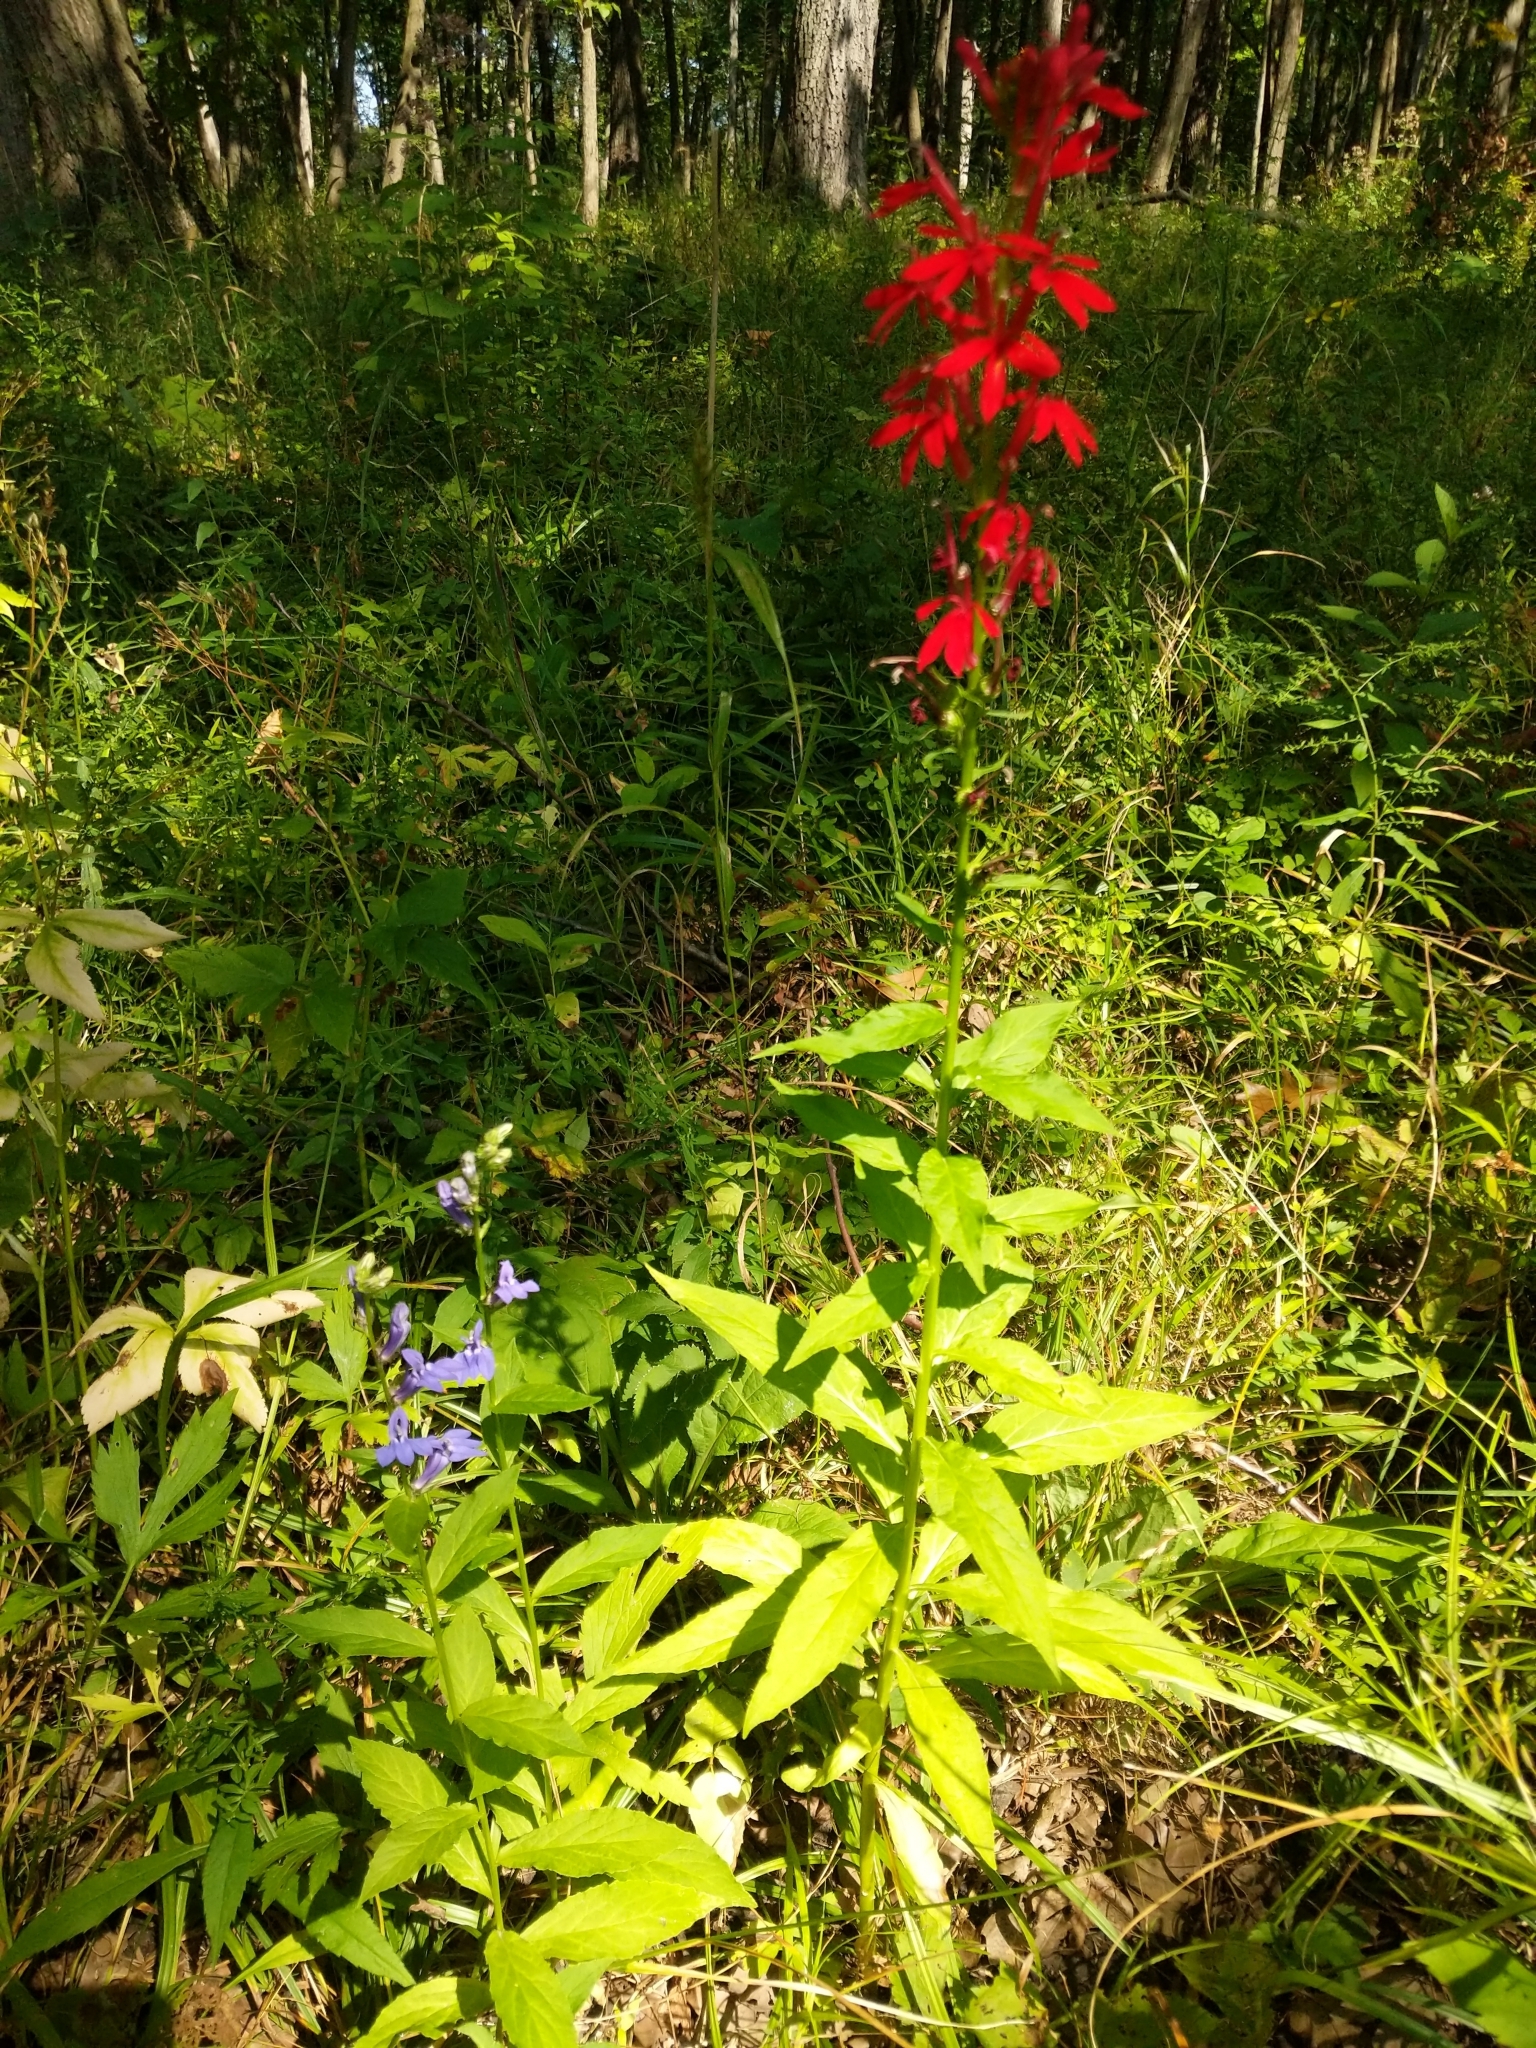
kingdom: Plantae
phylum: Tracheophyta
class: Magnoliopsida
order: Asterales
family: Campanulaceae
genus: Lobelia
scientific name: Lobelia cardinalis
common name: Cardinal flower
